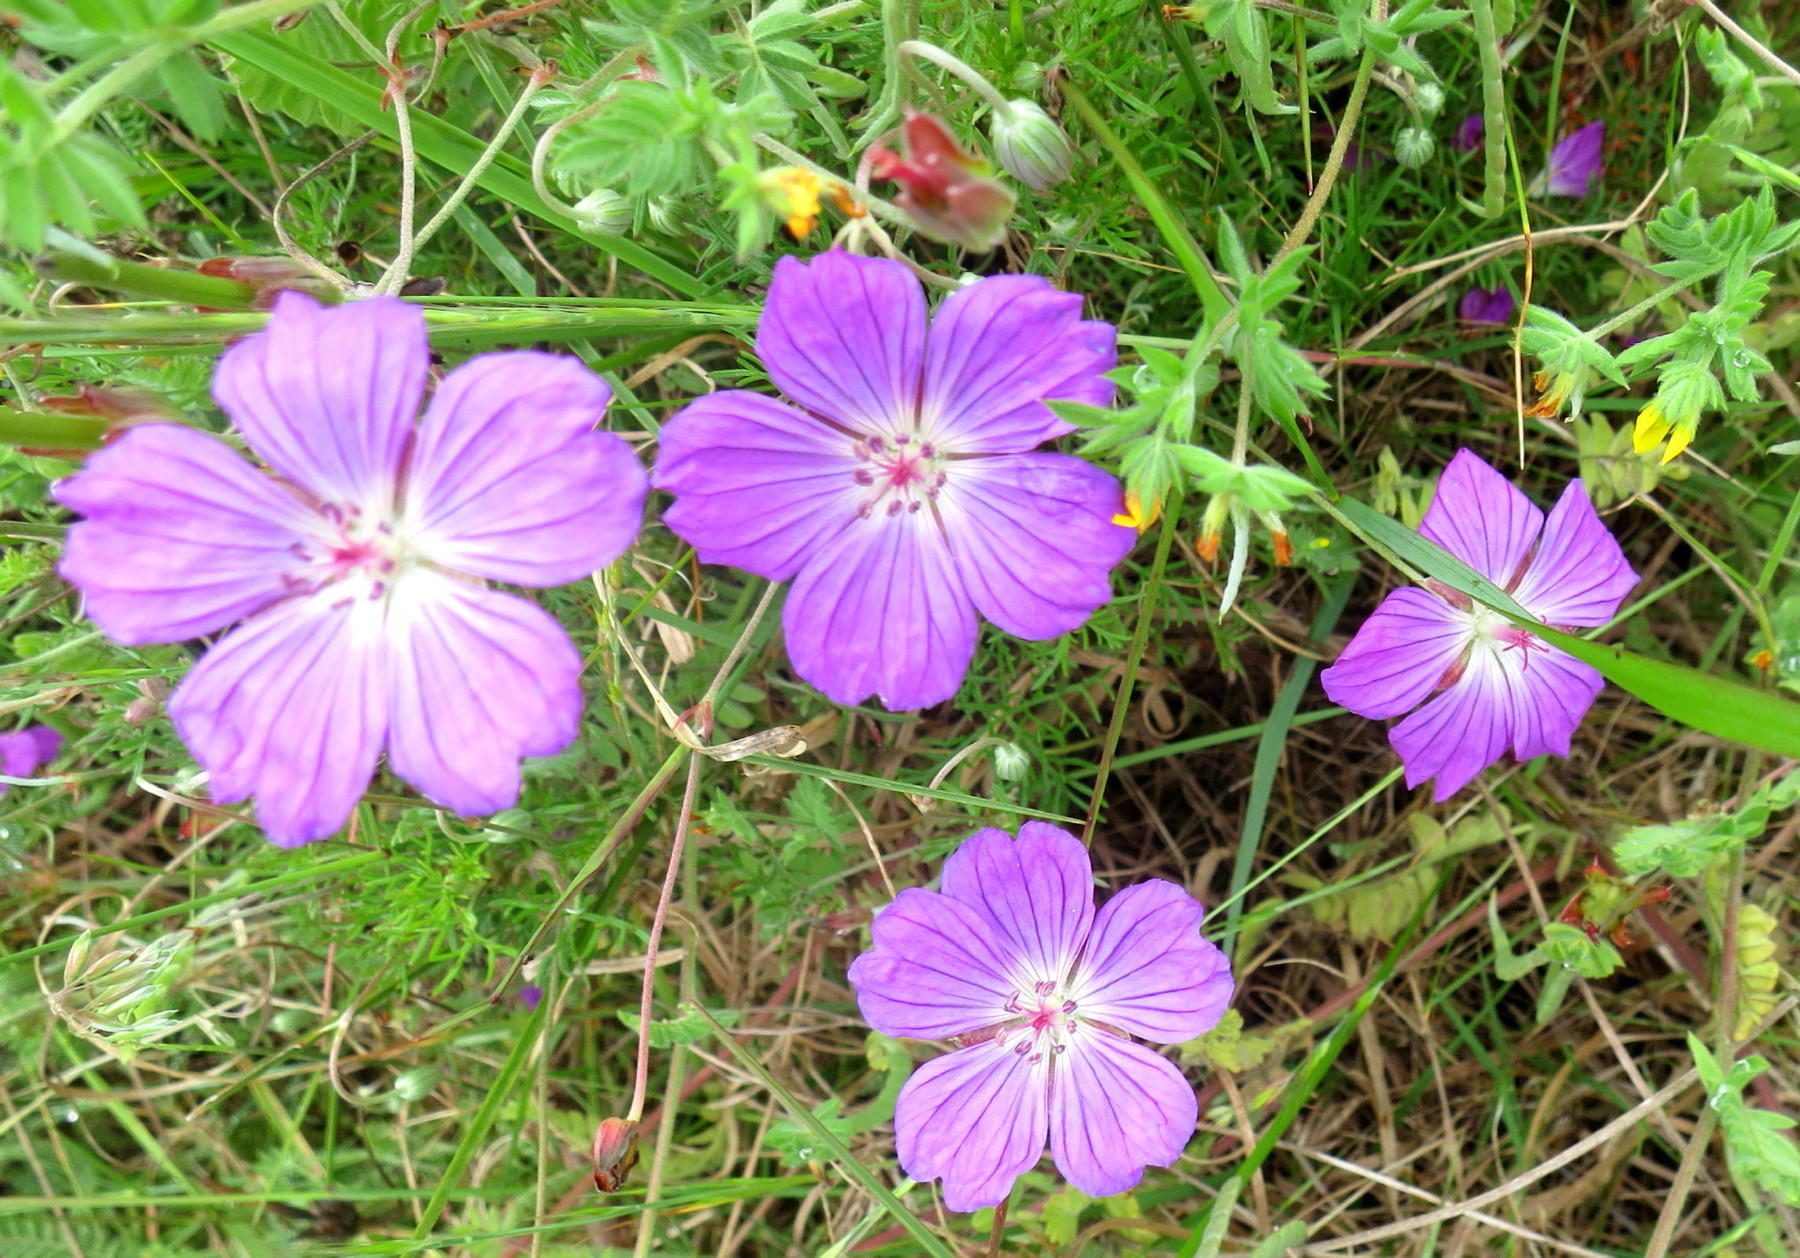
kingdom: Plantae
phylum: Tracheophyta
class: Magnoliopsida
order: Geraniales
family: Geraniaceae
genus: Geranium
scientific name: Geranium incanum
